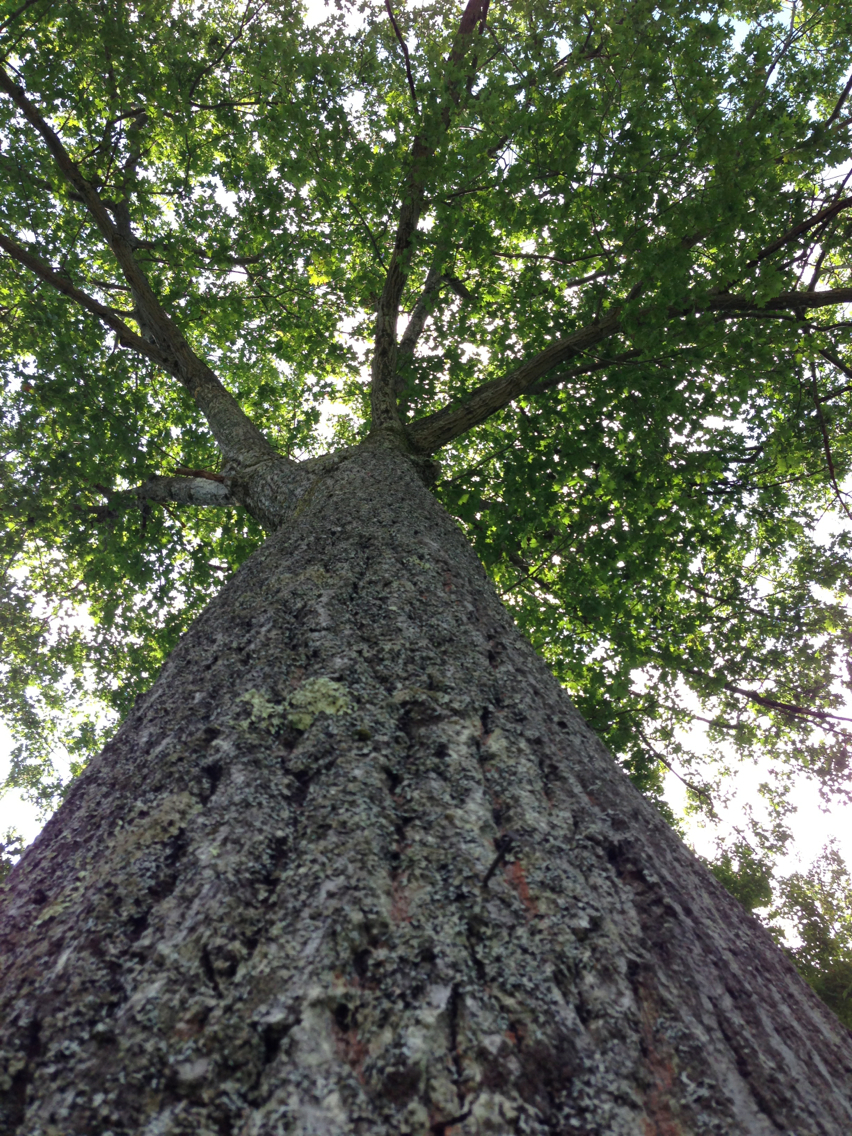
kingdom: Plantae
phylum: Tracheophyta
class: Magnoliopsida
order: Fagales
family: Fagaceae
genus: Quercus
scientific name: Quercus rubra
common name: Red oak
